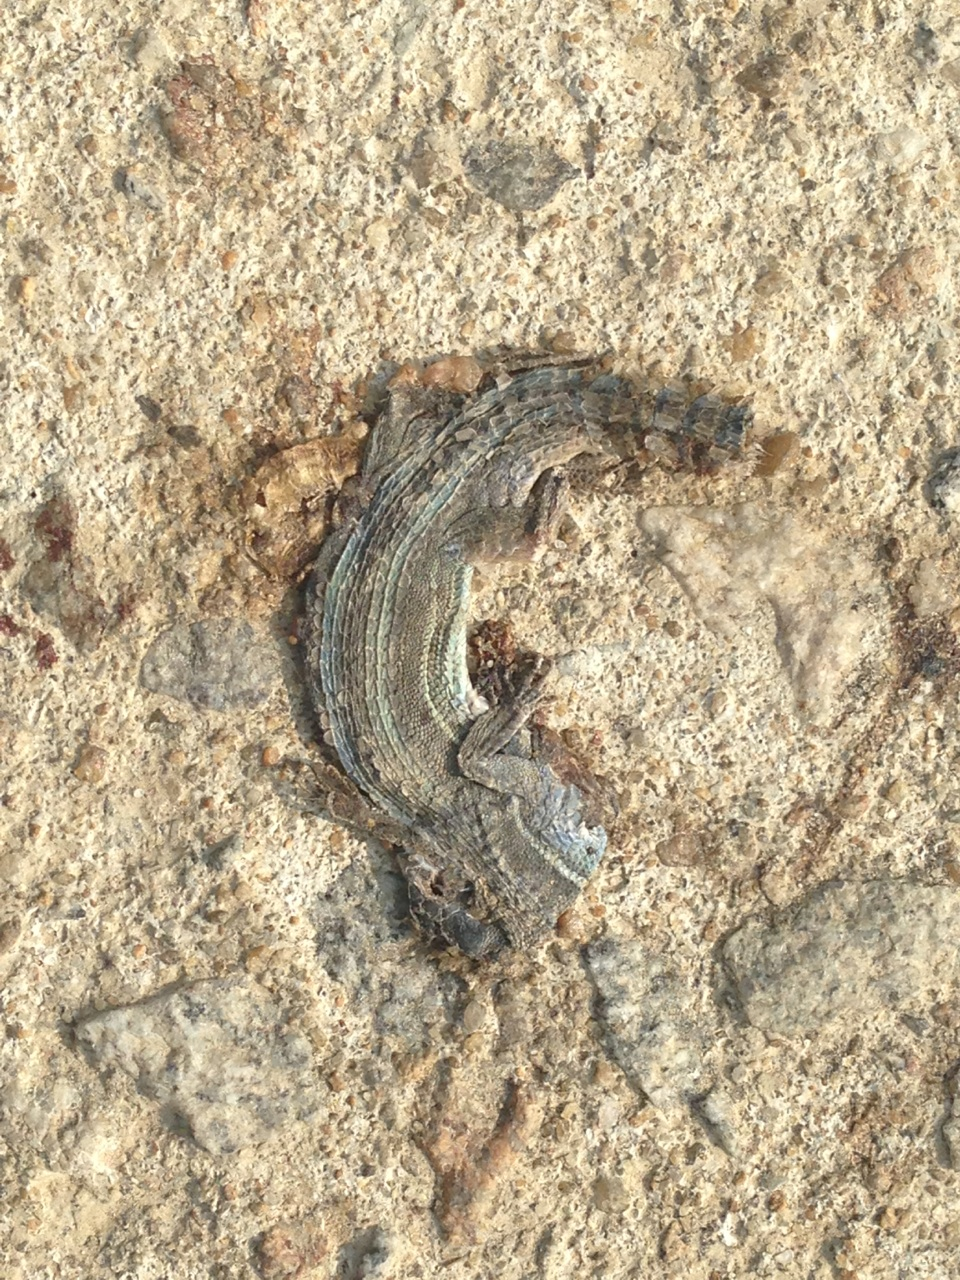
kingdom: Animalia
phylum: Chordata
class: Squamata
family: Lacertidae
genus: Takydromus
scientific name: Takydromus wolteri
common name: Mountain grass lizard
